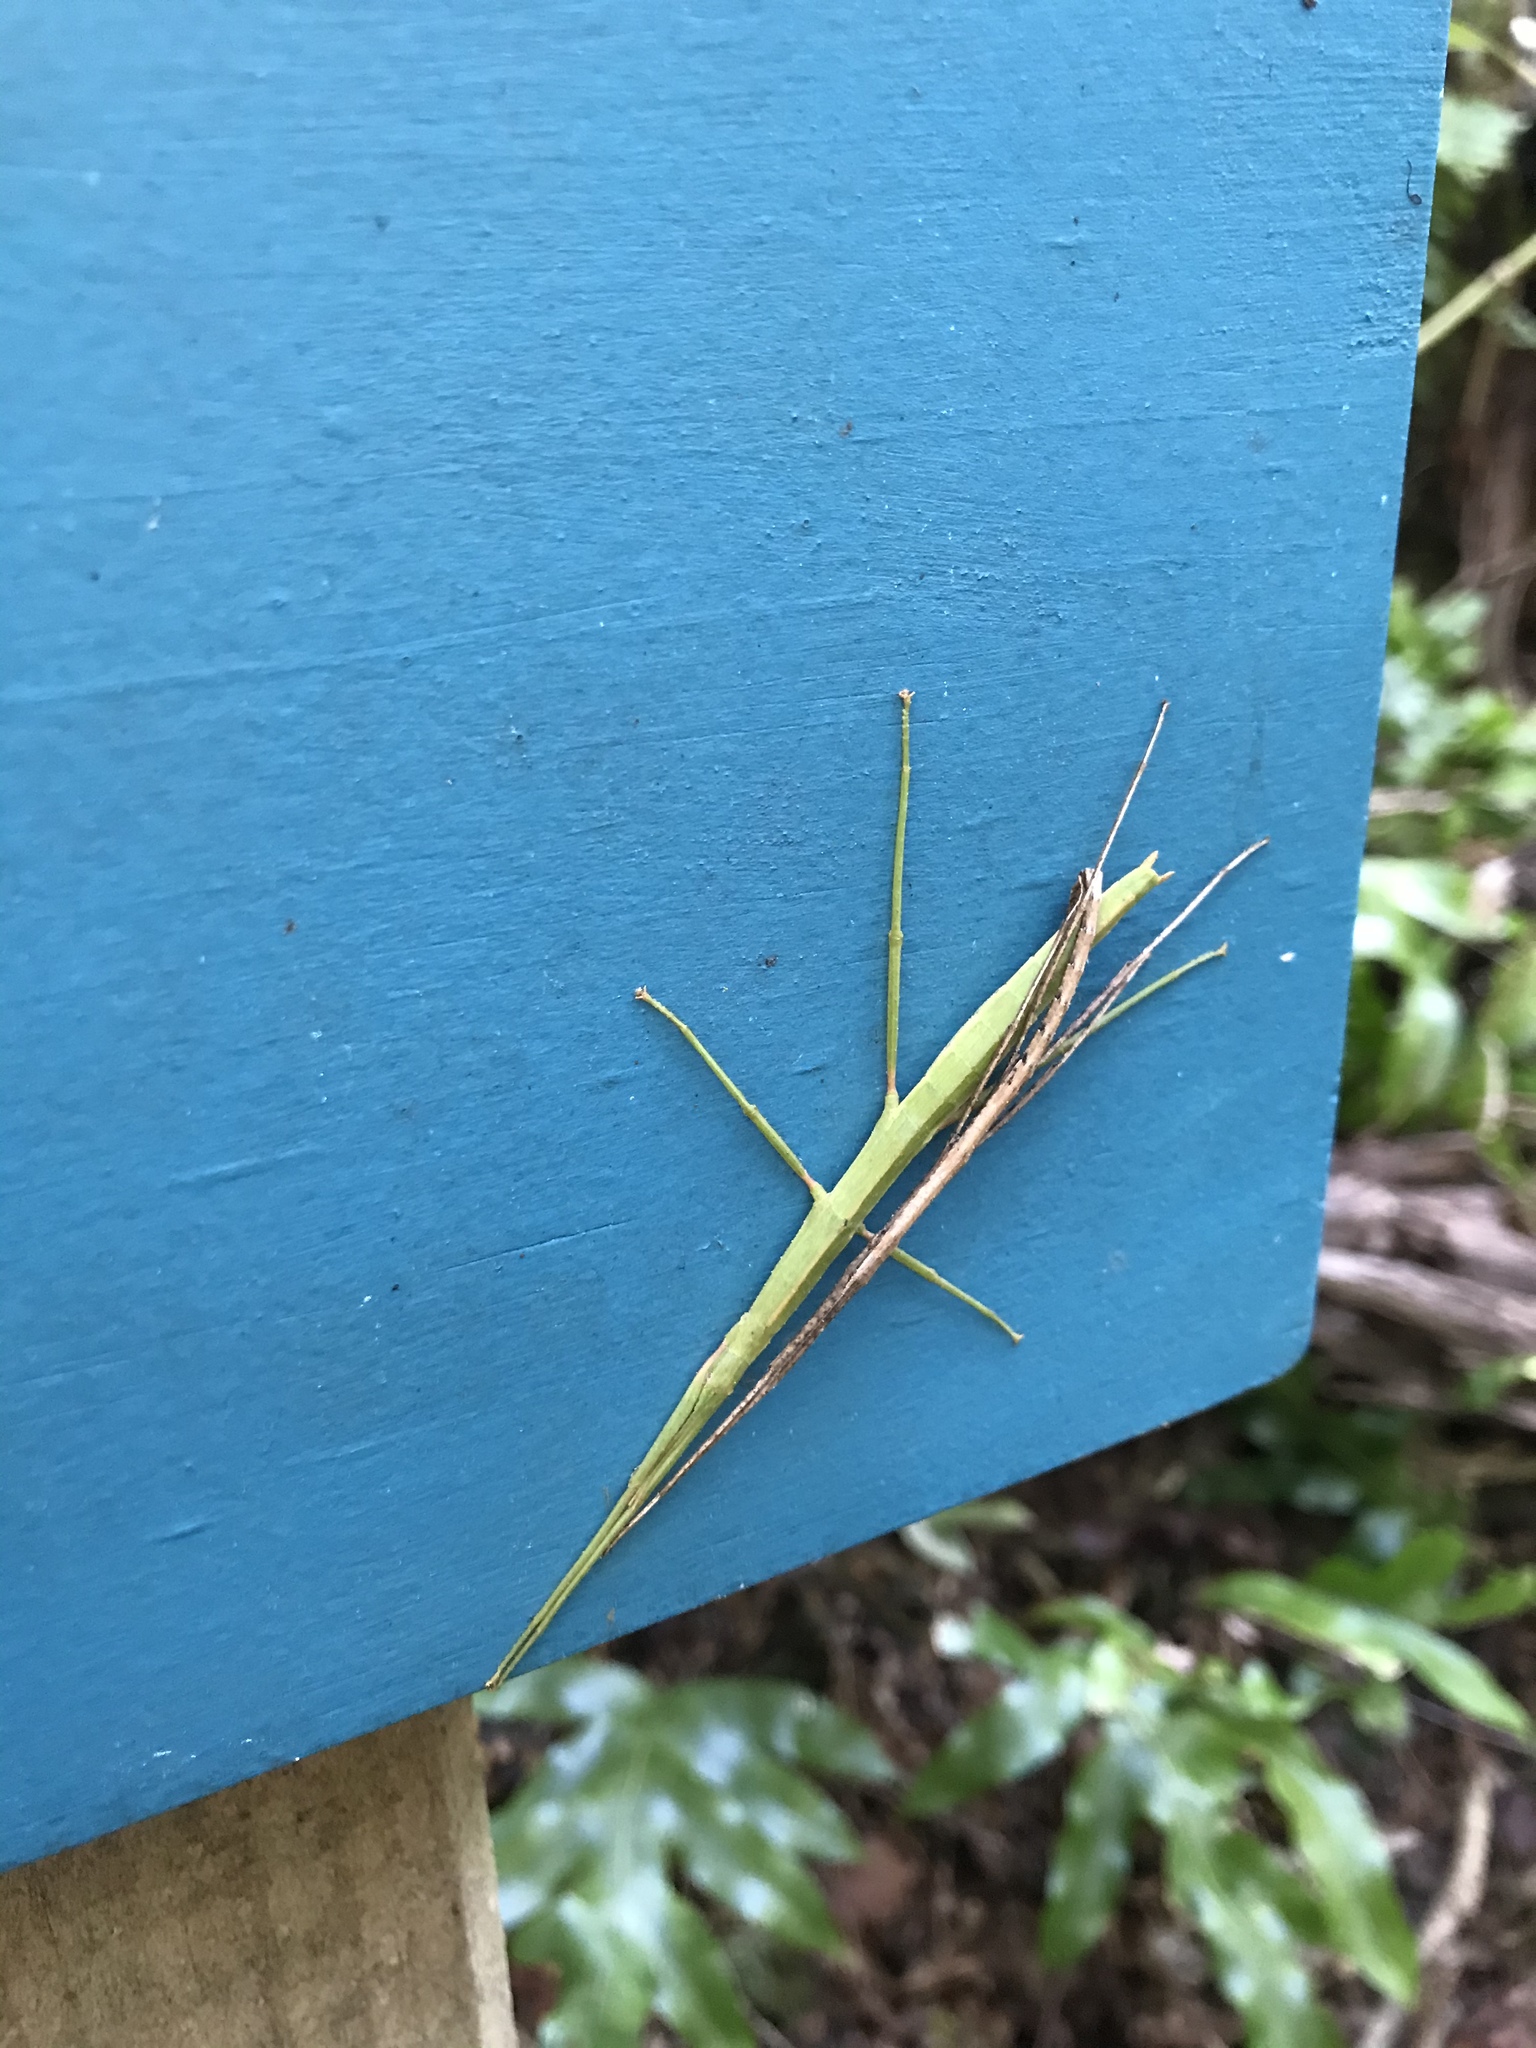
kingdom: Animalia
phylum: Arthropoda
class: Insecta
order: Phasmida
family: Phasmatidae
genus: Tectarchus
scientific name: Tectarchus huttoni
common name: The common ridge-backed stick insect
